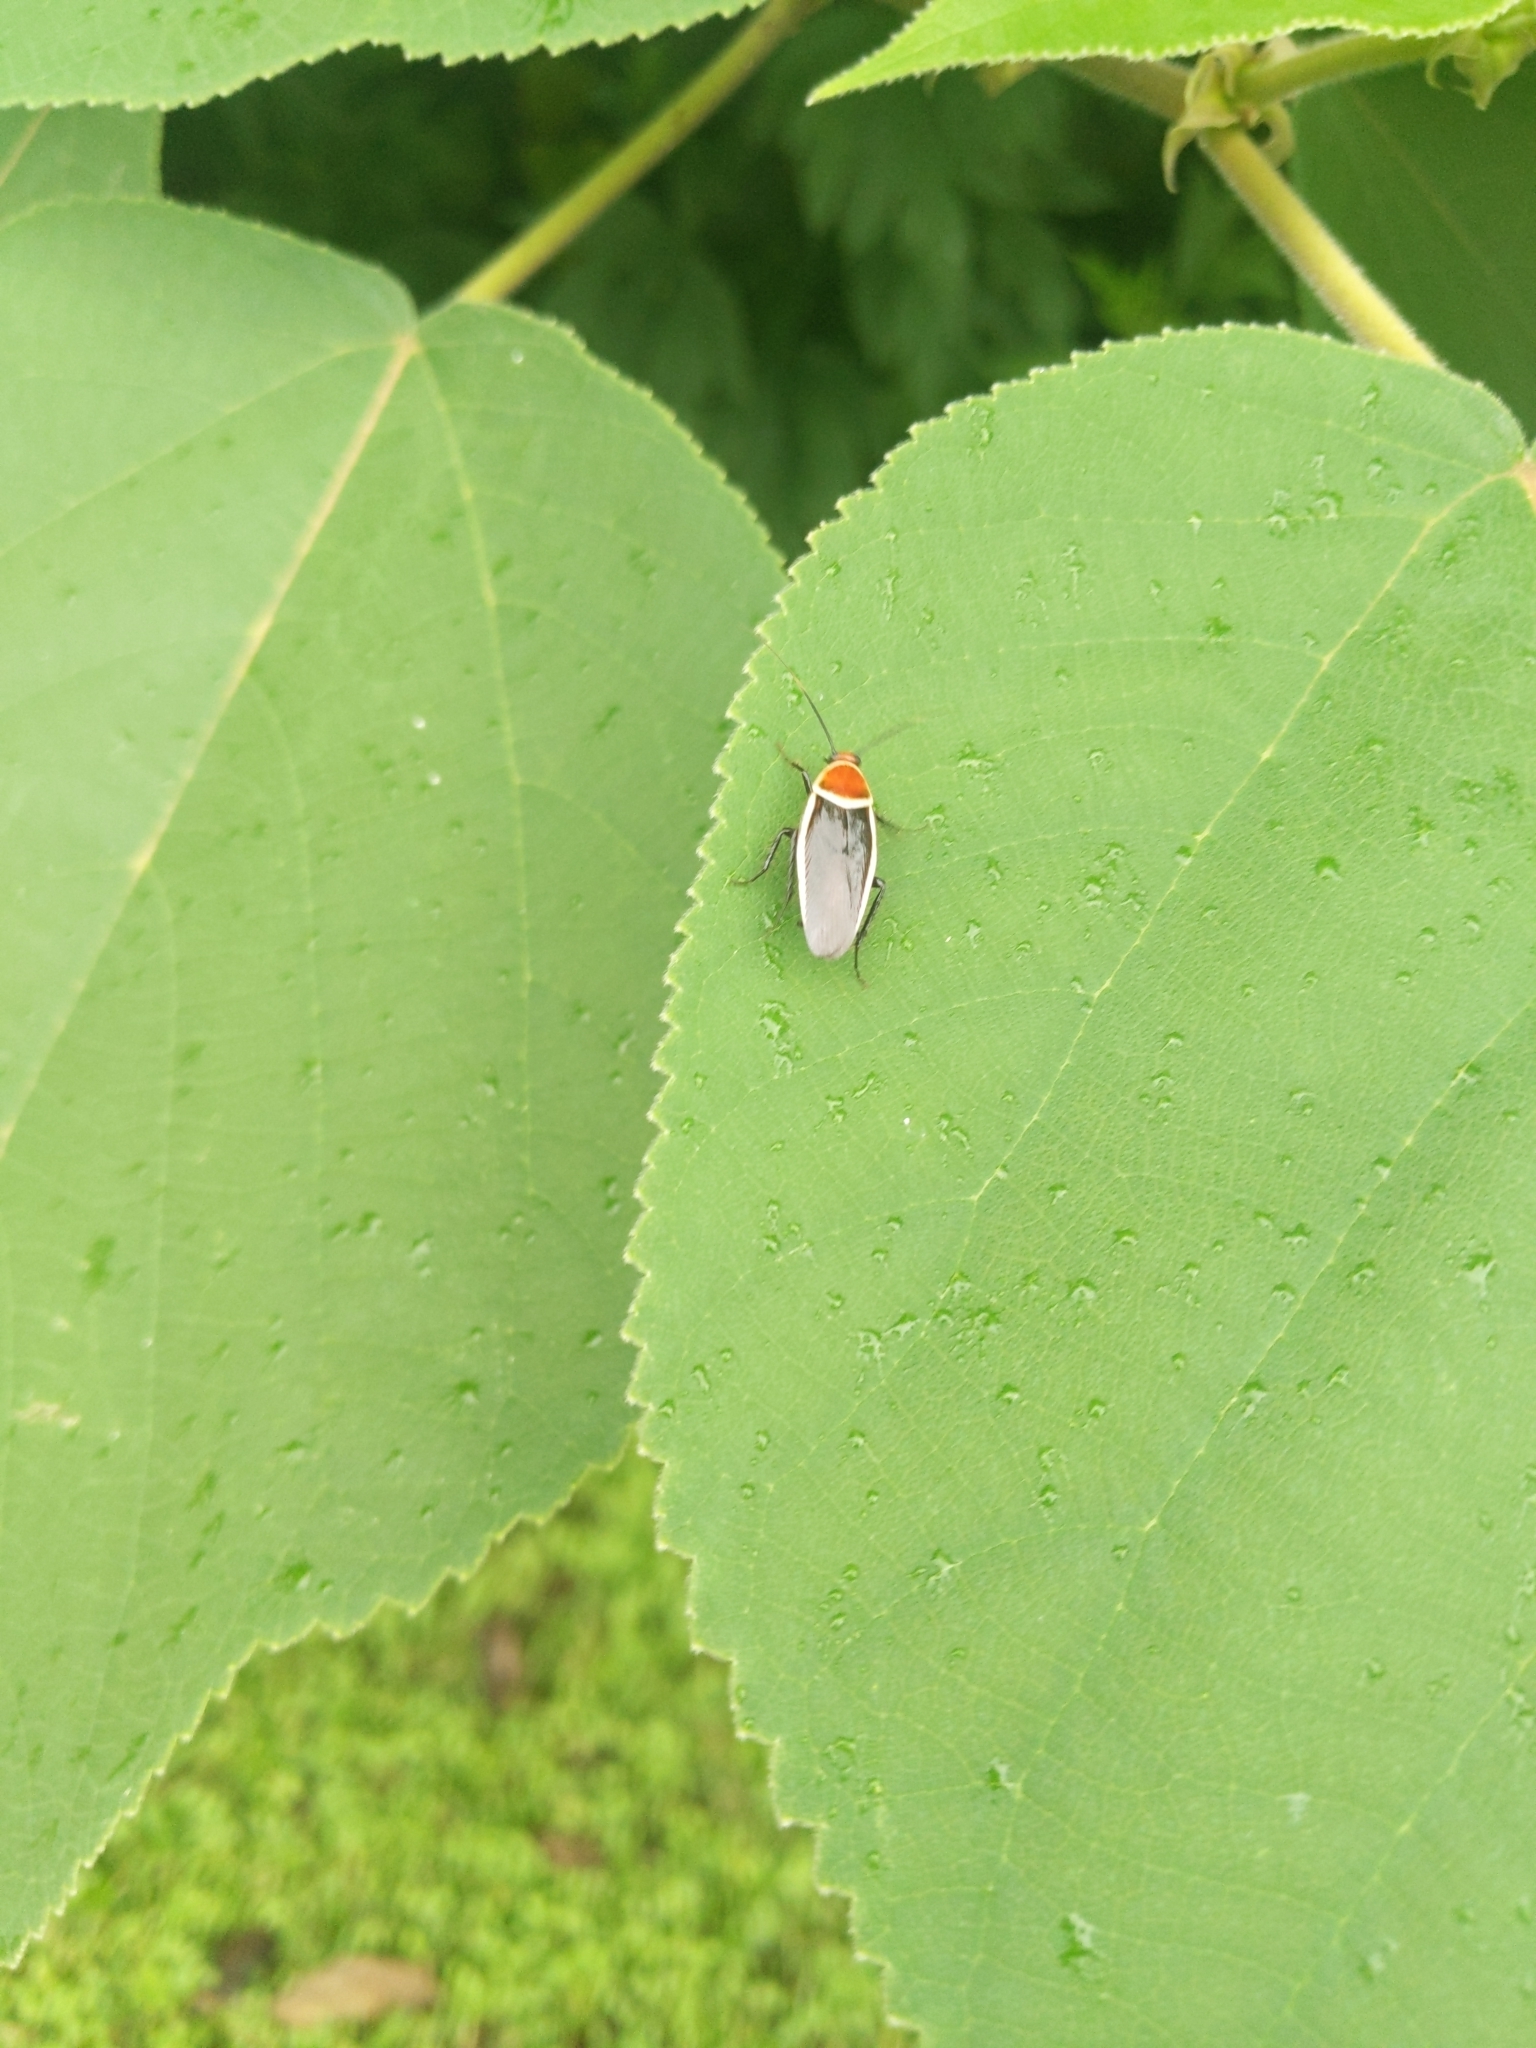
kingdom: Animalia
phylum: Arthropoda
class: Insecta
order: Blattodea
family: Ectobiidae
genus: Pseudomops
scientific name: Pseudomops septentrionalis
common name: Pale-bordered field cockroach
